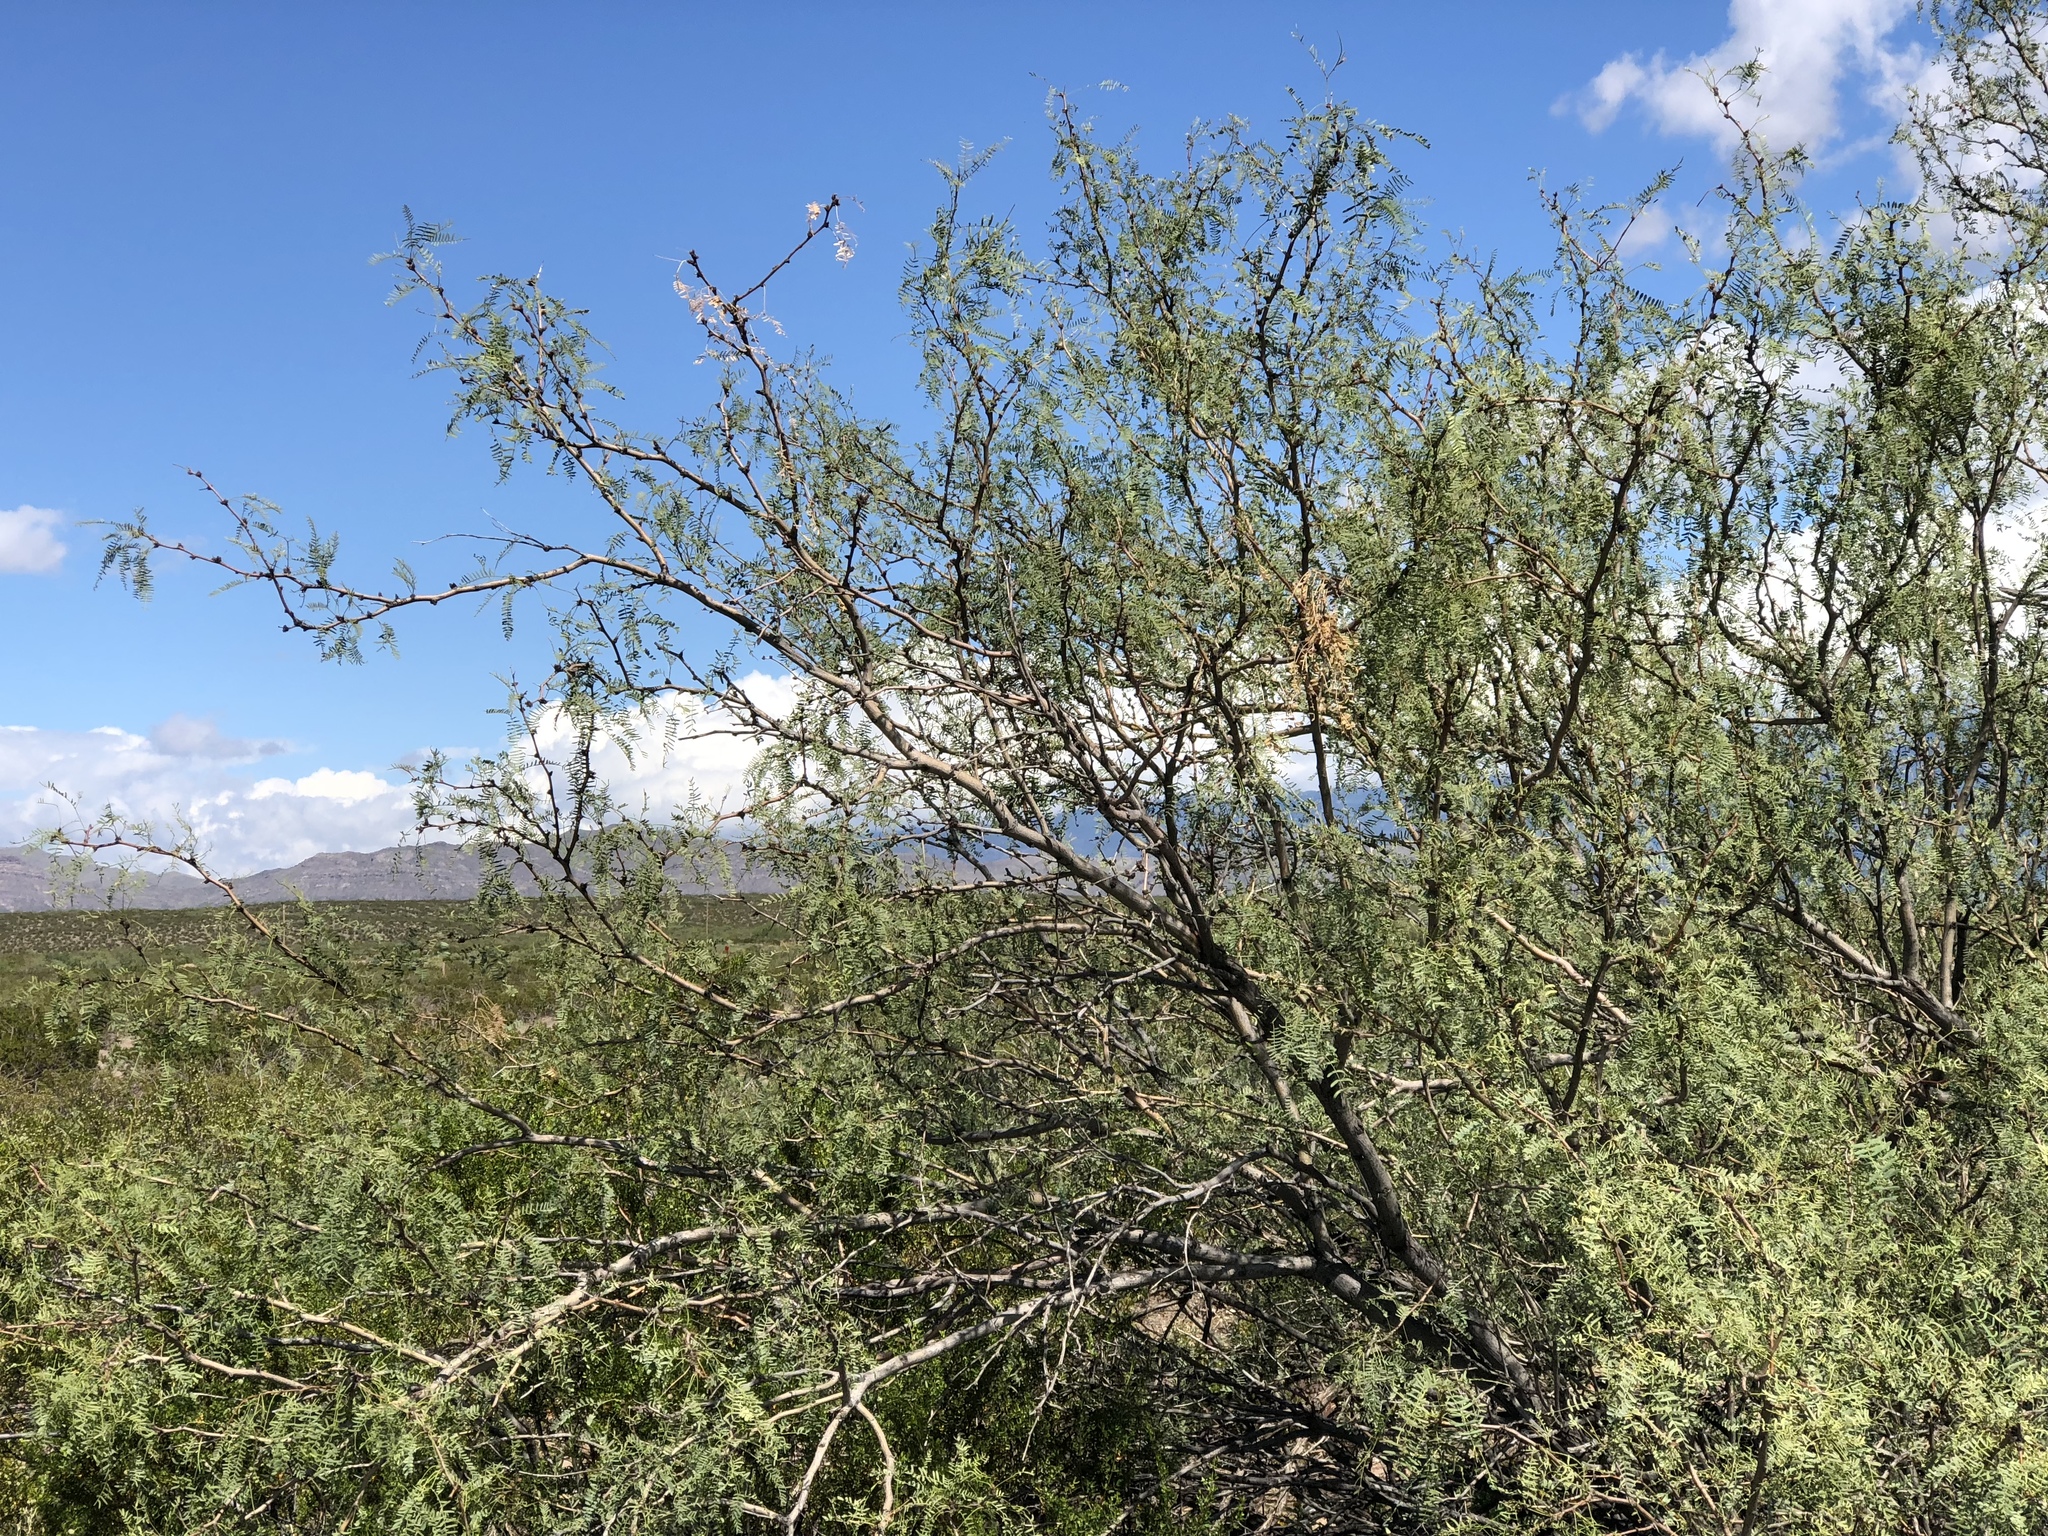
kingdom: Plantae
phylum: Tracheophyta
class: Magnoliopsida
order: Fabales
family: Fabaceae
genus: Prosopis
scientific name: Prosopis glandulosa
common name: Honey mesquite
